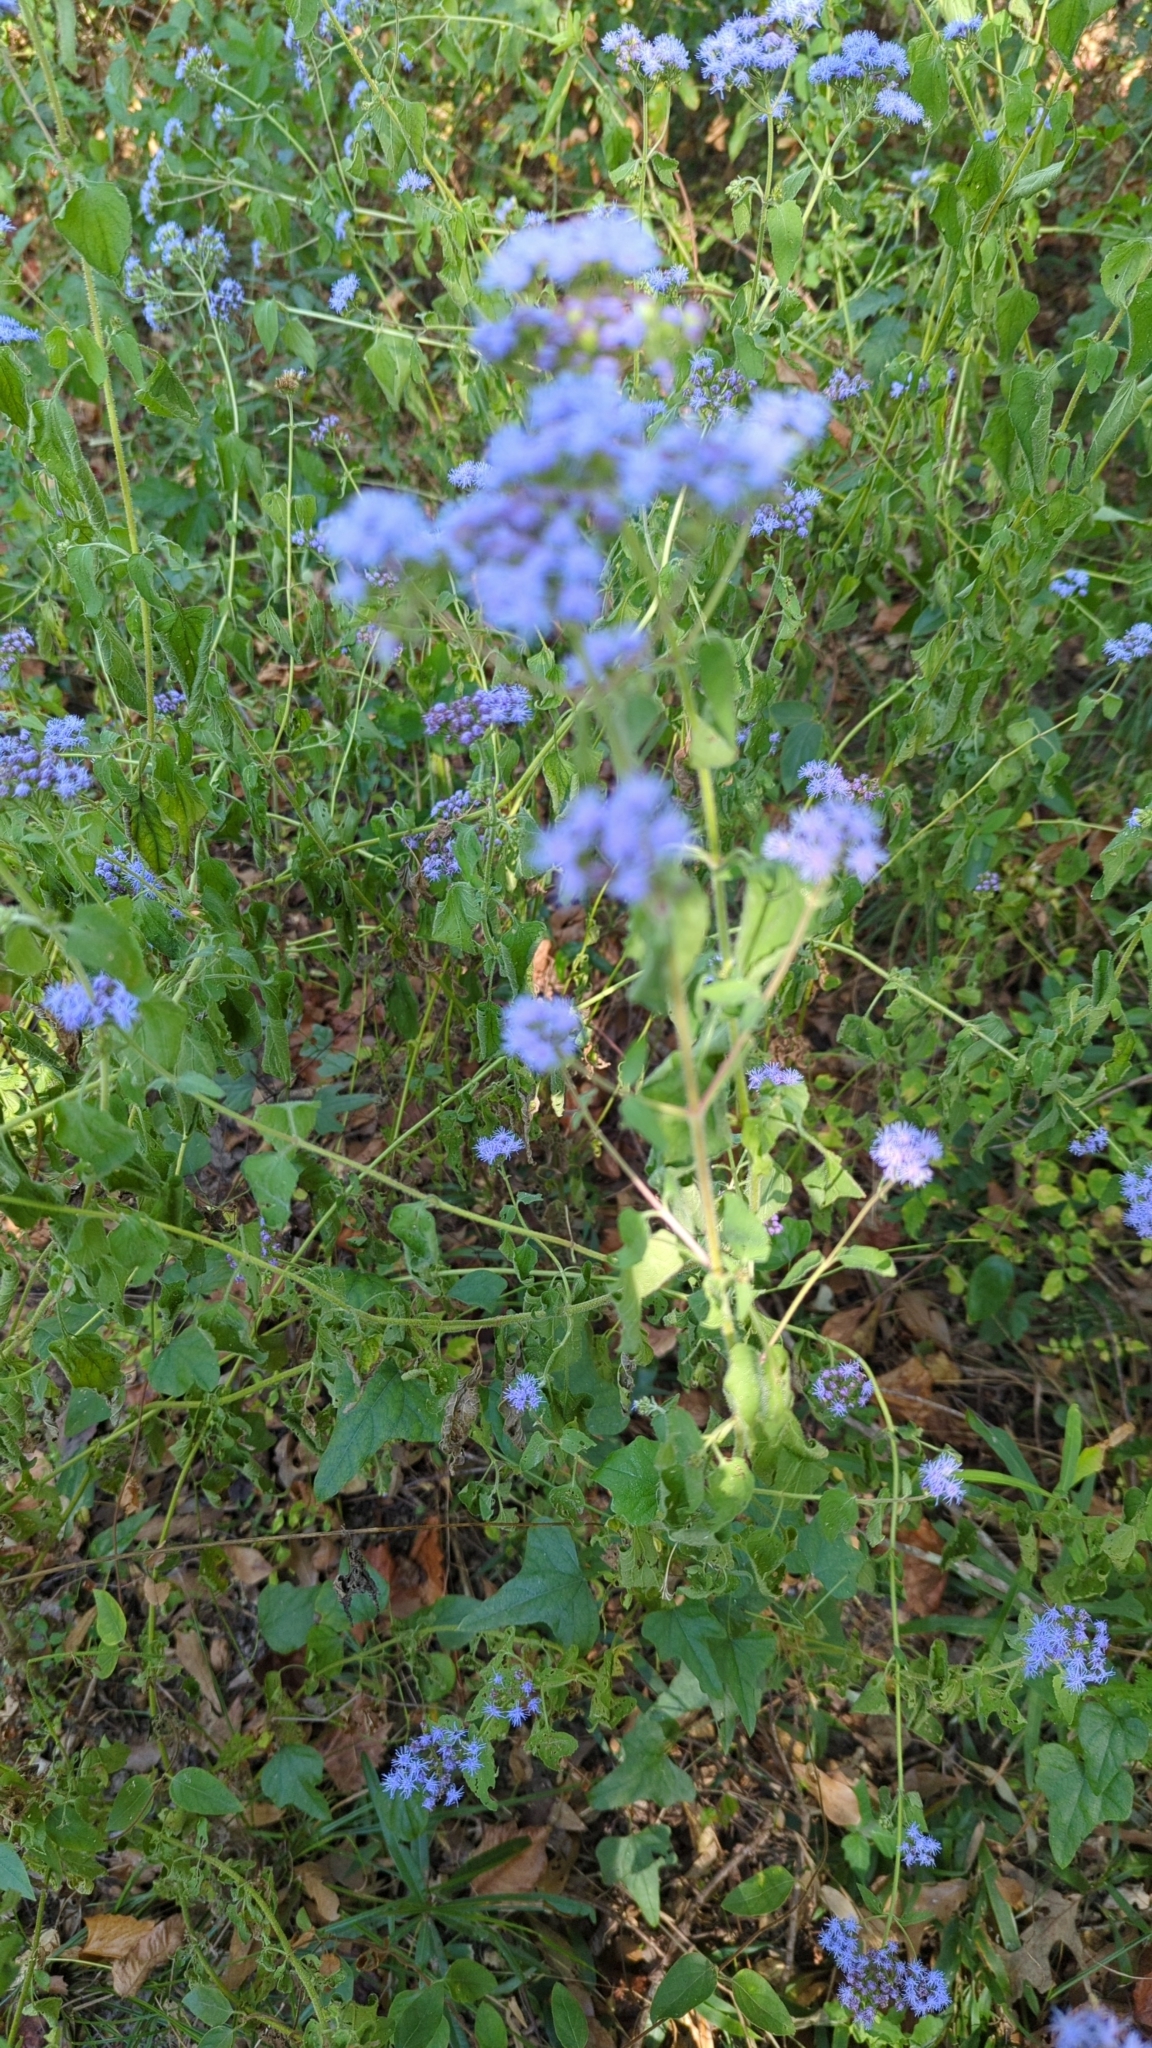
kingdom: Plantae
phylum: Tracheophyta
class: Magnoliopsida
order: Asterales
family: Asteraceae
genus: Conoclinium
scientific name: Conoclinium coelestinum
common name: Blue mistflower
